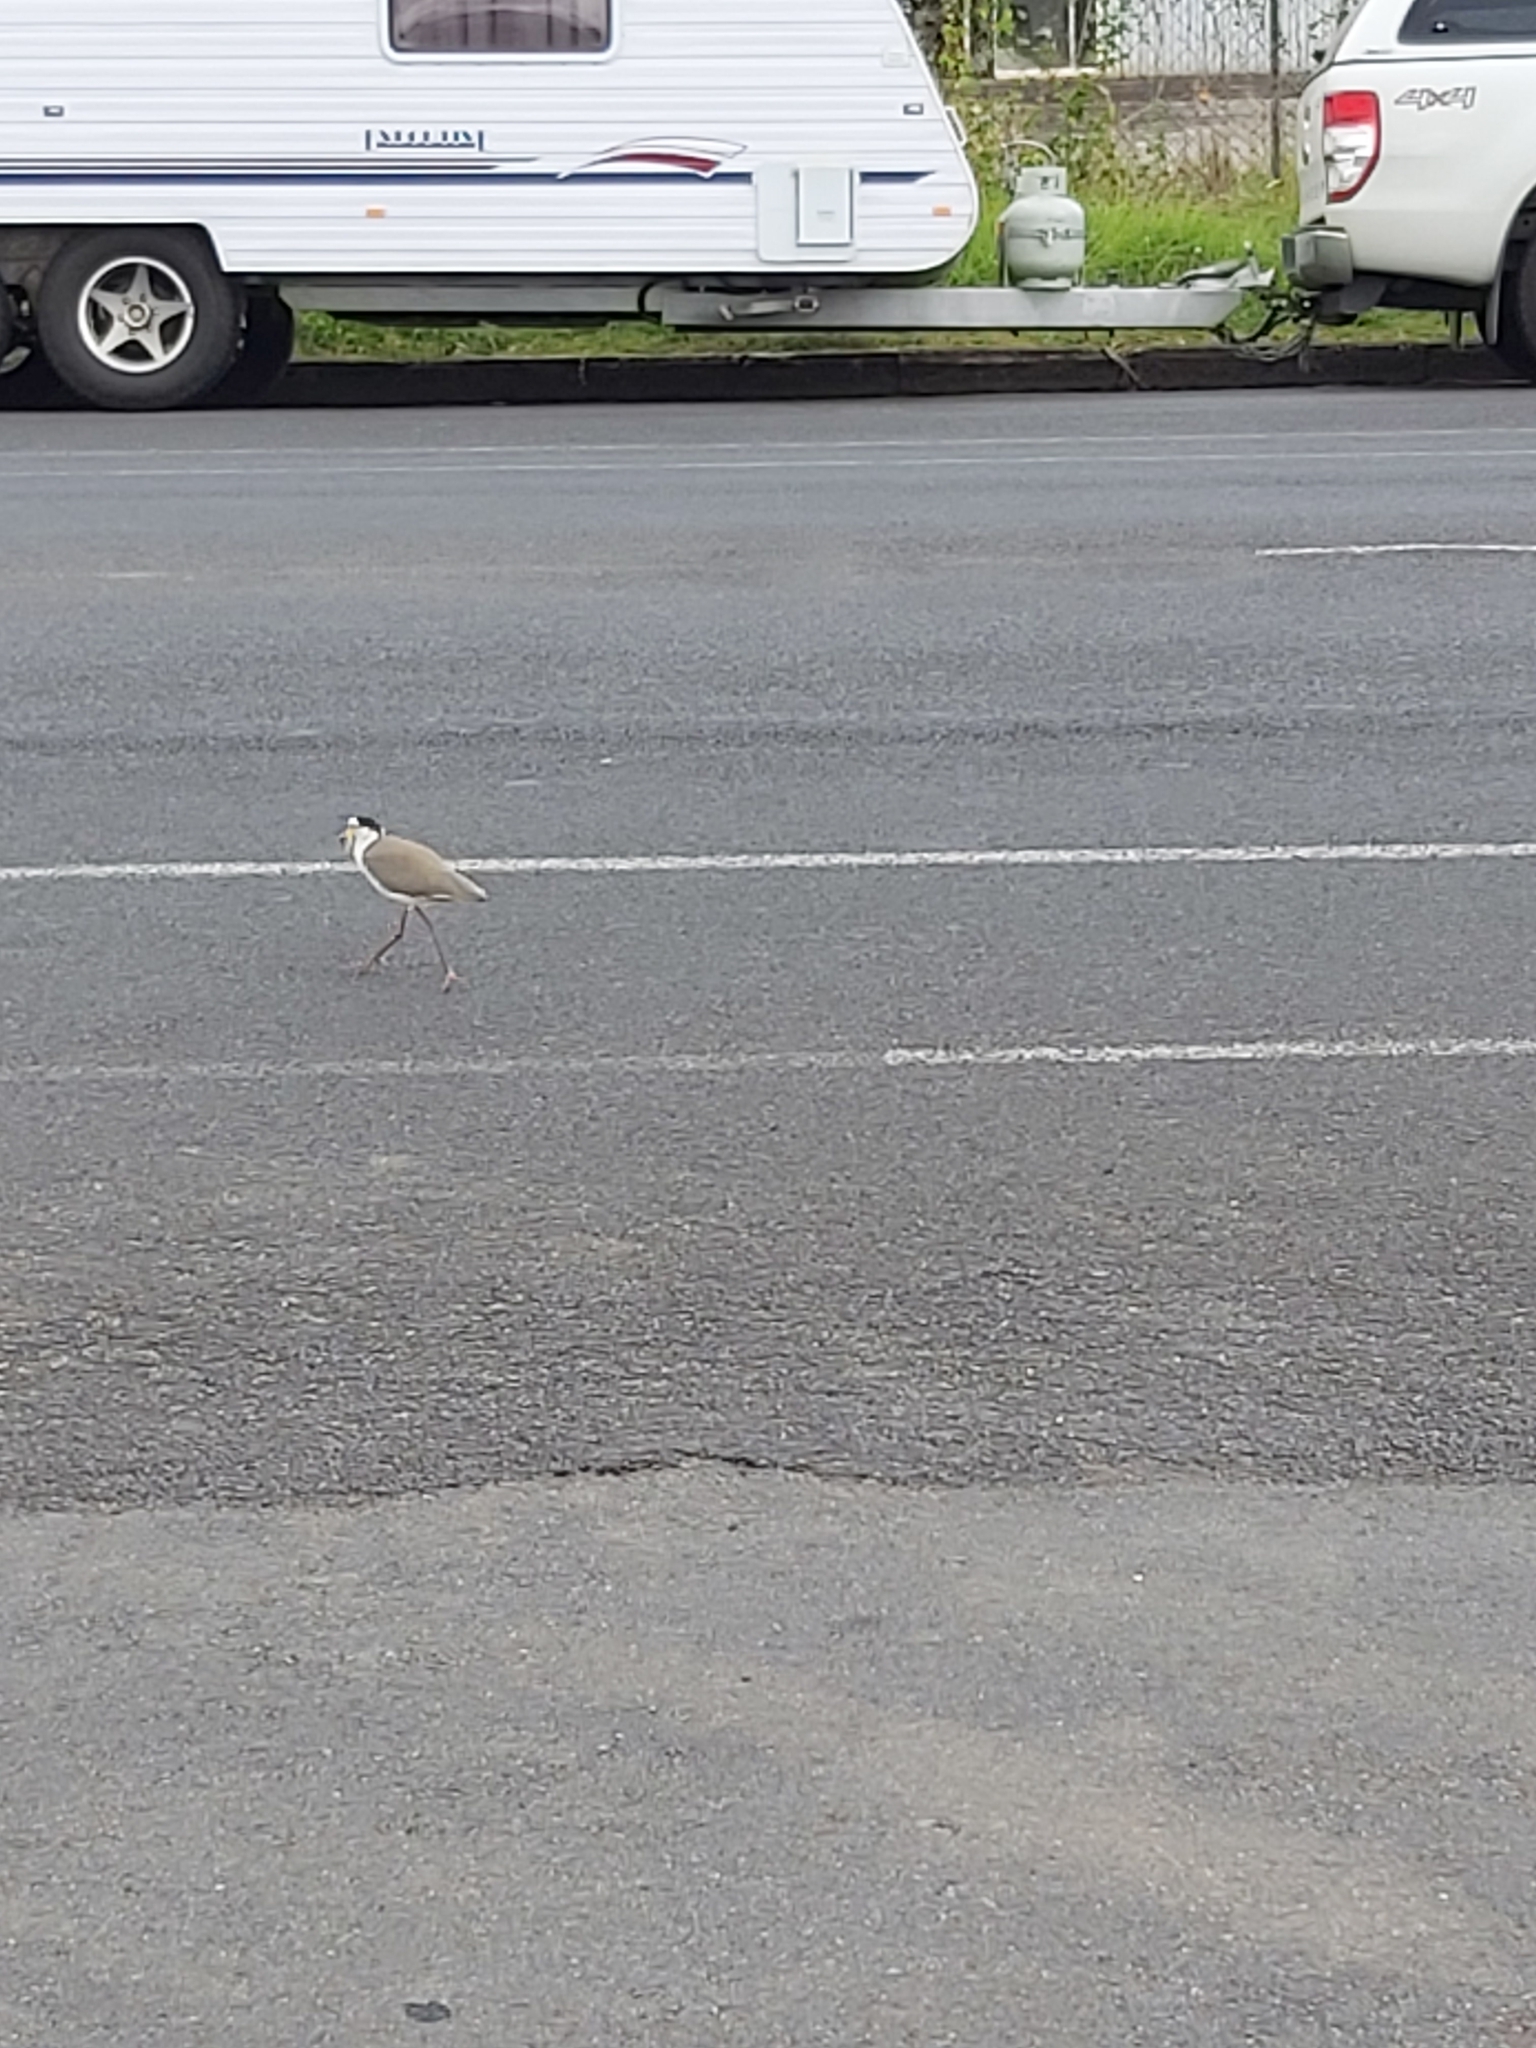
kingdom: Animalia
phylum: Chordata
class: Aves
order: Charadriiformes
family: Charadriidae
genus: Vanellus
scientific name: Vanellus miles
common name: Masked lapwing
